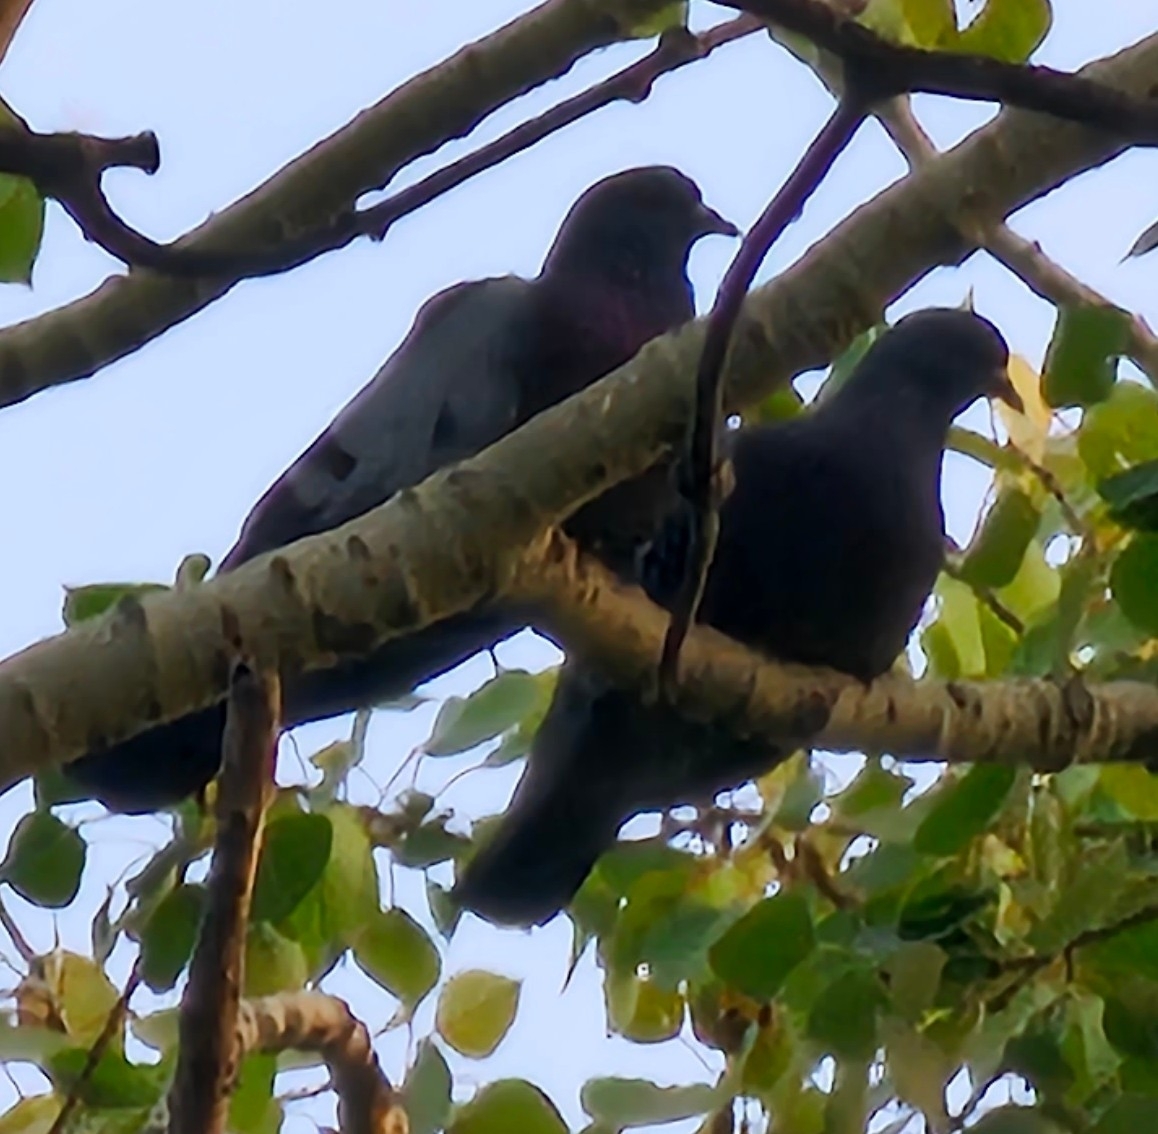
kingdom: Animalia
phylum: Chordata
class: Aves
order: Columbiformes
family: Columbidae
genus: Columba
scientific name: Columba livia
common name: Rock pigeon
